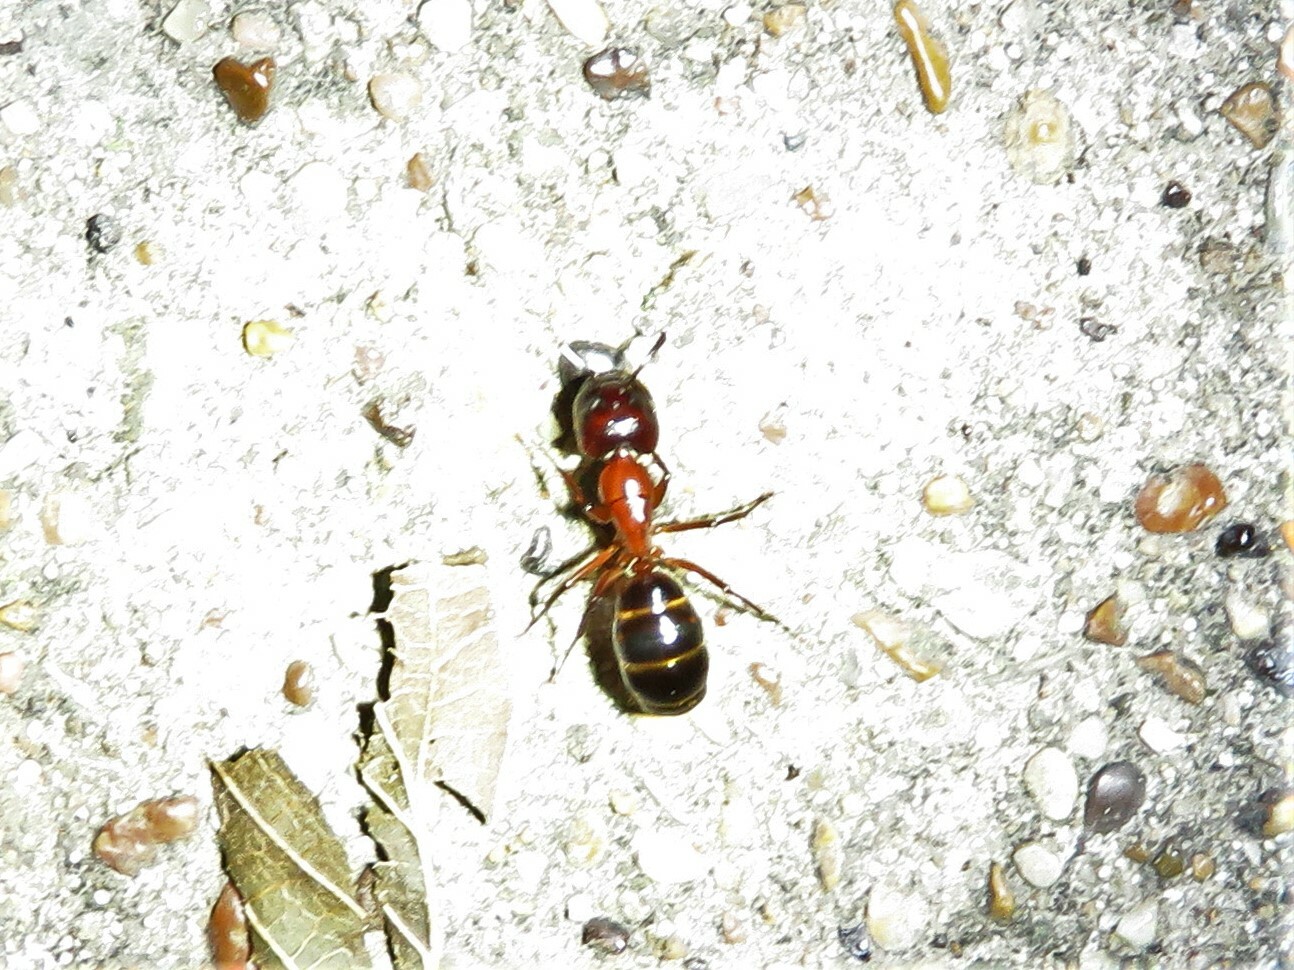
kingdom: Animalia
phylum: Arthropoda
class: Insecta
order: Hymenoptera
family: Formicidae
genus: Camponotus
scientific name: Camponotus texanus
